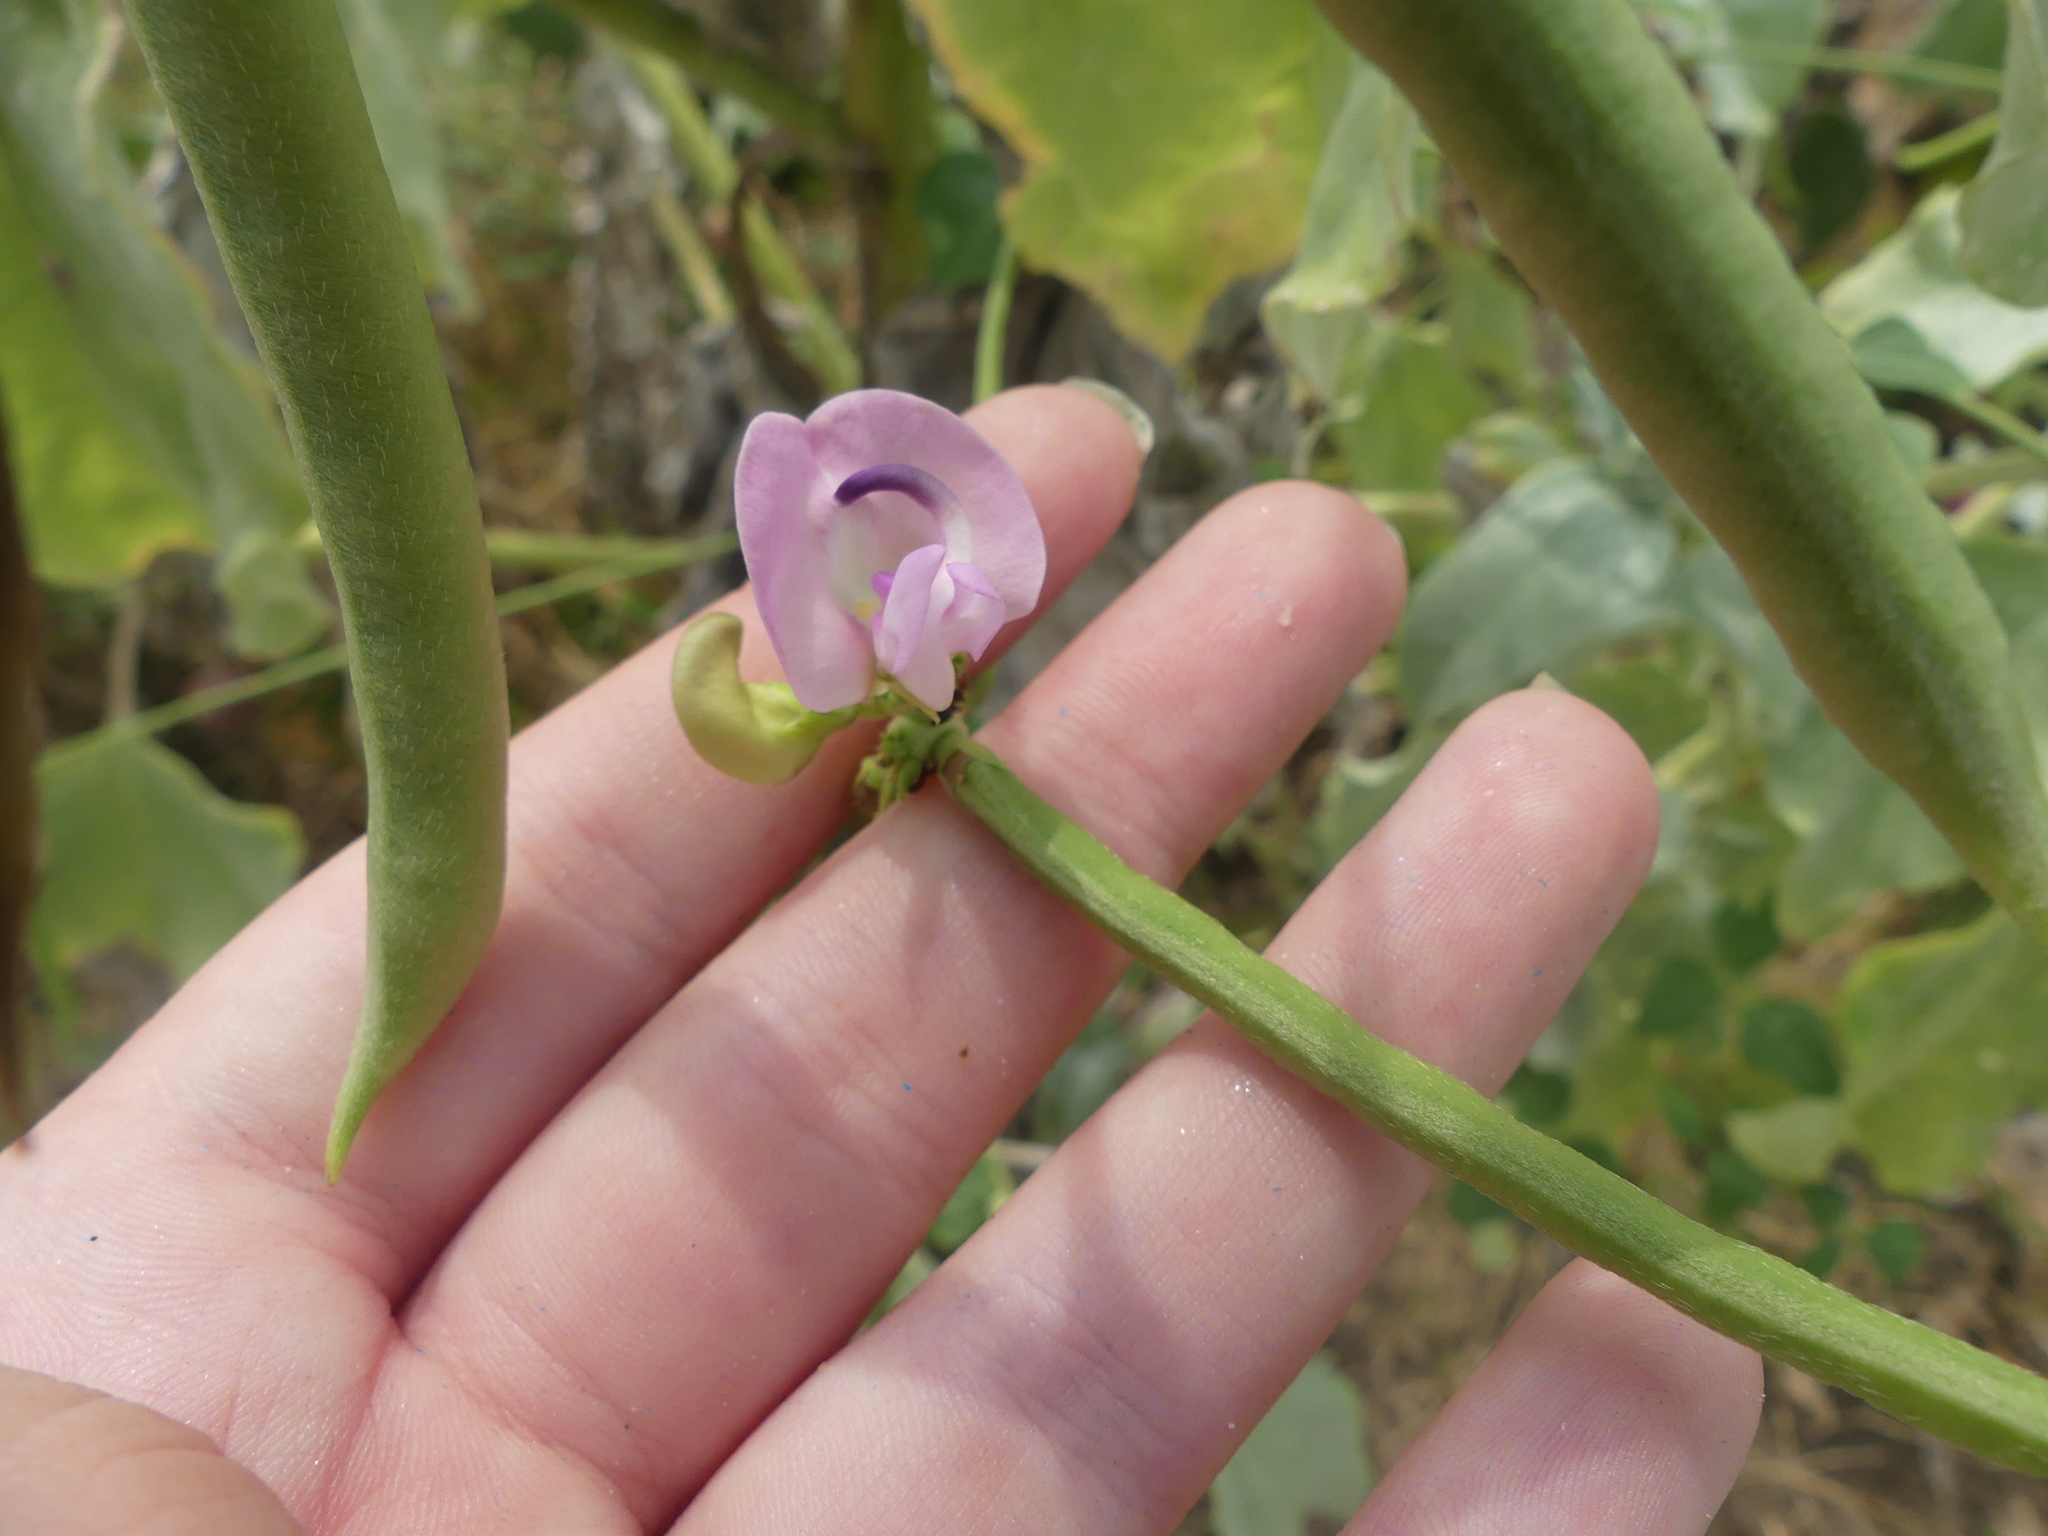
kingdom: Plantae
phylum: Tracheophyta
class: Magnoliopsida
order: Fabales
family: Fabaceae
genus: Strophostyles
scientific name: Strophostyles helvola
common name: Trailing wild bean
